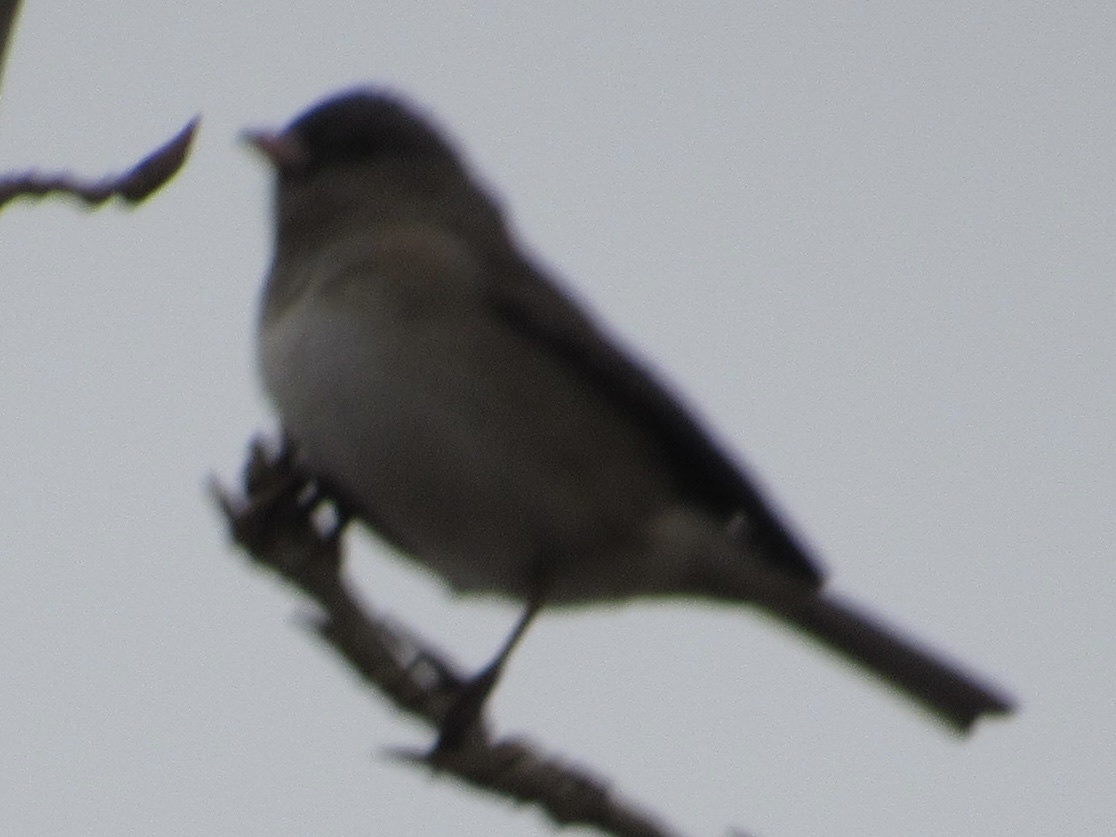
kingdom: Animalia
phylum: Chordata
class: Aves
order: Passeriformes
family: Passerellidae
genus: Junco
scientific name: Junco hyemalis
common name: Dark-eyed junco
